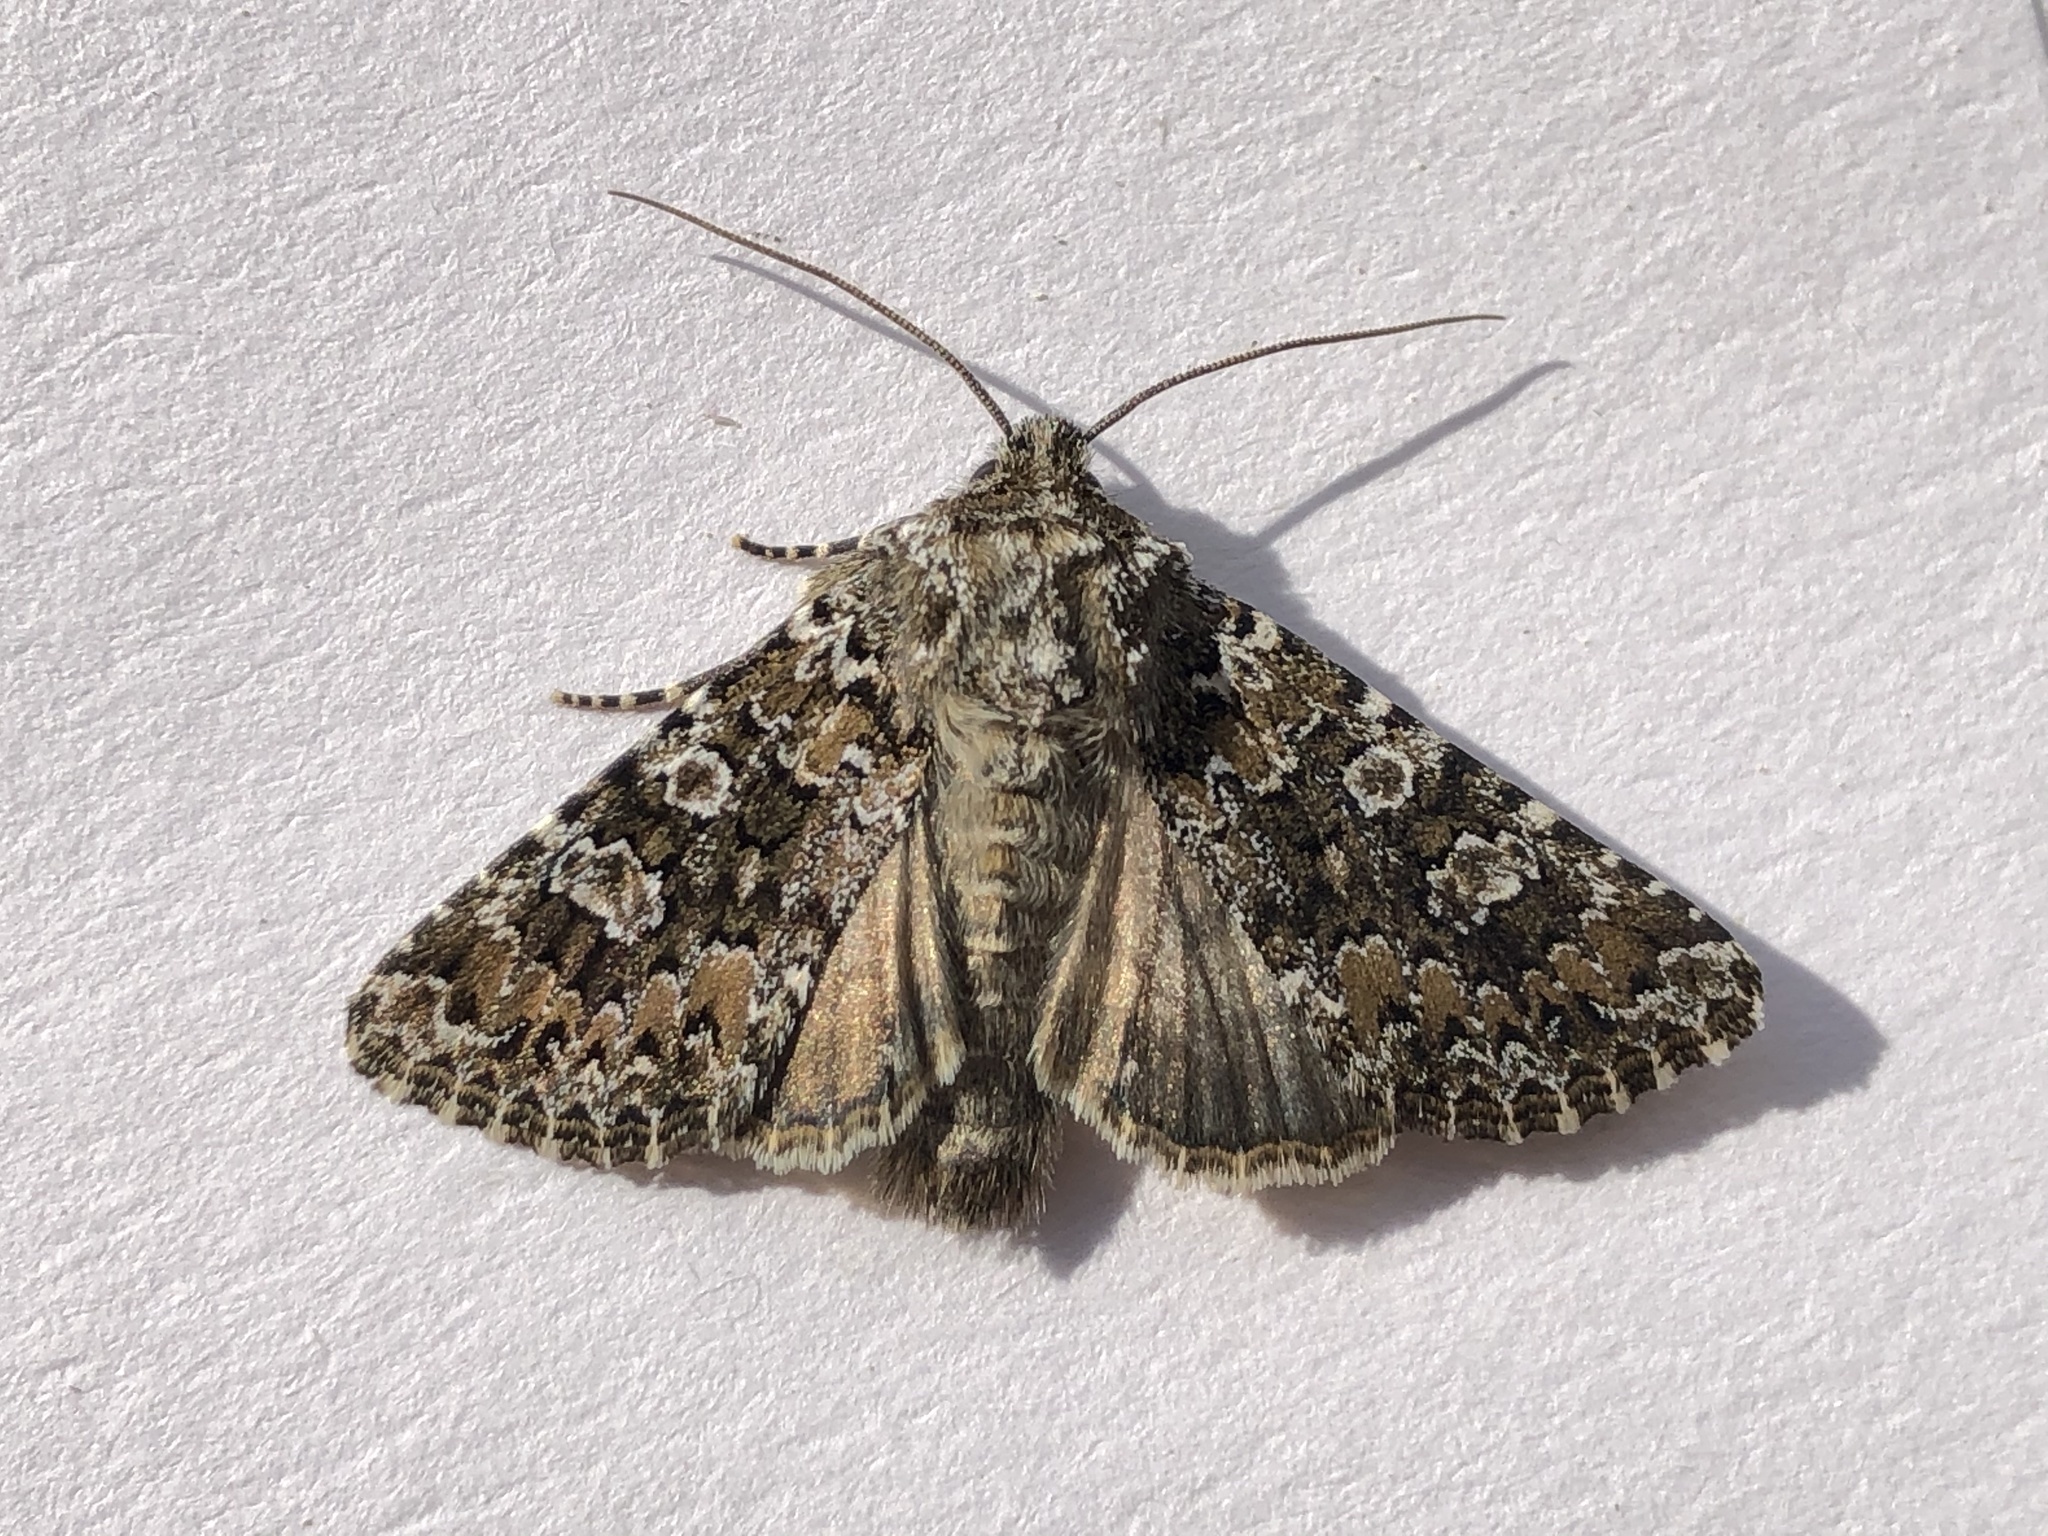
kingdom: Animalia
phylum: Arthropoda
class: Insecta
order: Lepidoptera
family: Noctuidae
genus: Hadena
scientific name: Hadena magnolii
